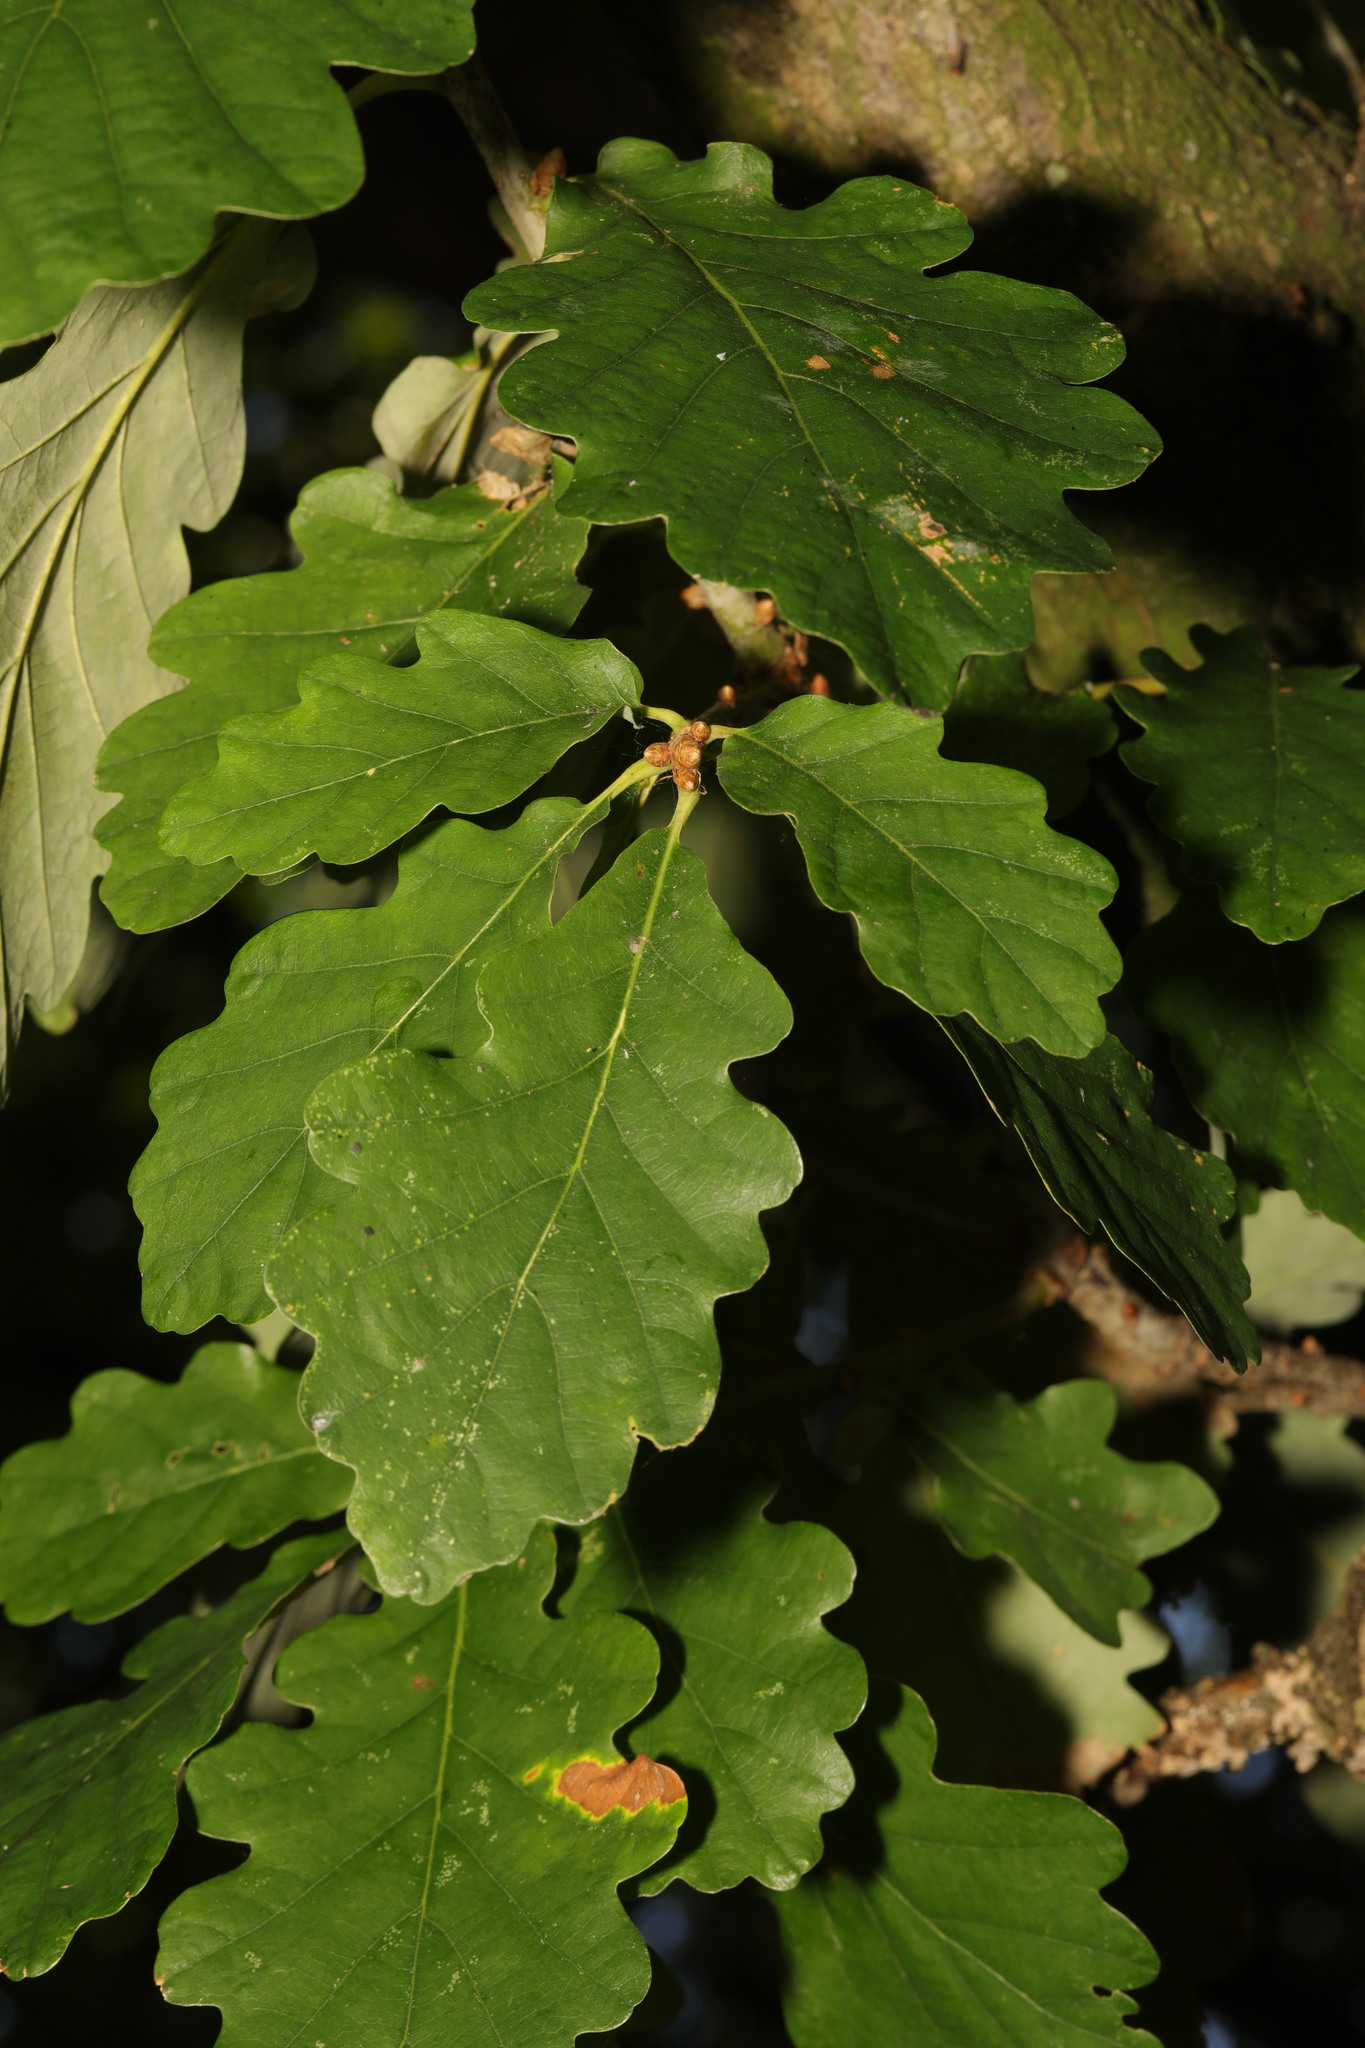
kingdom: Plantae
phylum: Tracheophyta
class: Magnoliopsida
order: Fagales
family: Fagaceae
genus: Quercus
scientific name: Quercus rosacea
